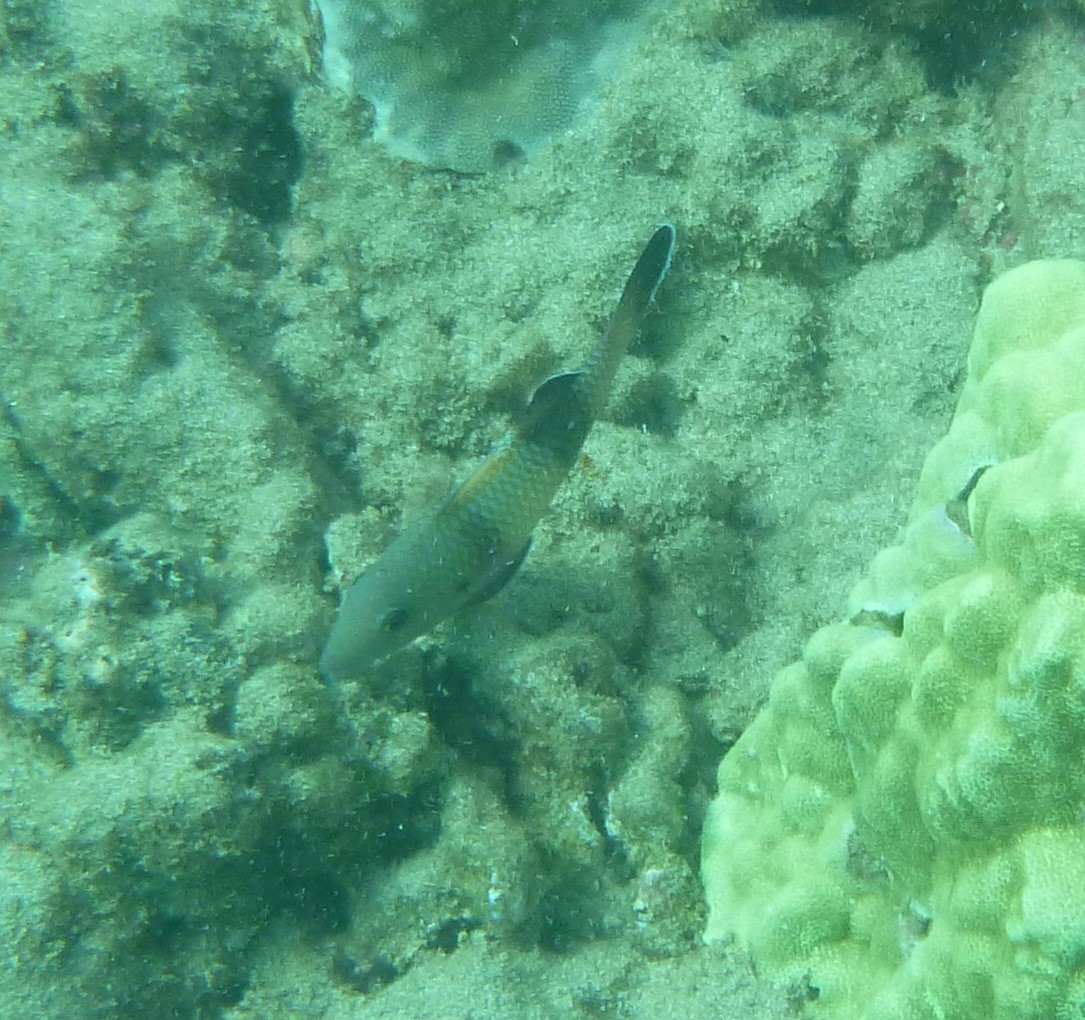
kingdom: Animalia
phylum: Chordata
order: Perciformes
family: Mullidae
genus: Parupeneus
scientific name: Parupeneus insularis
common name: Doublebar goatfish
